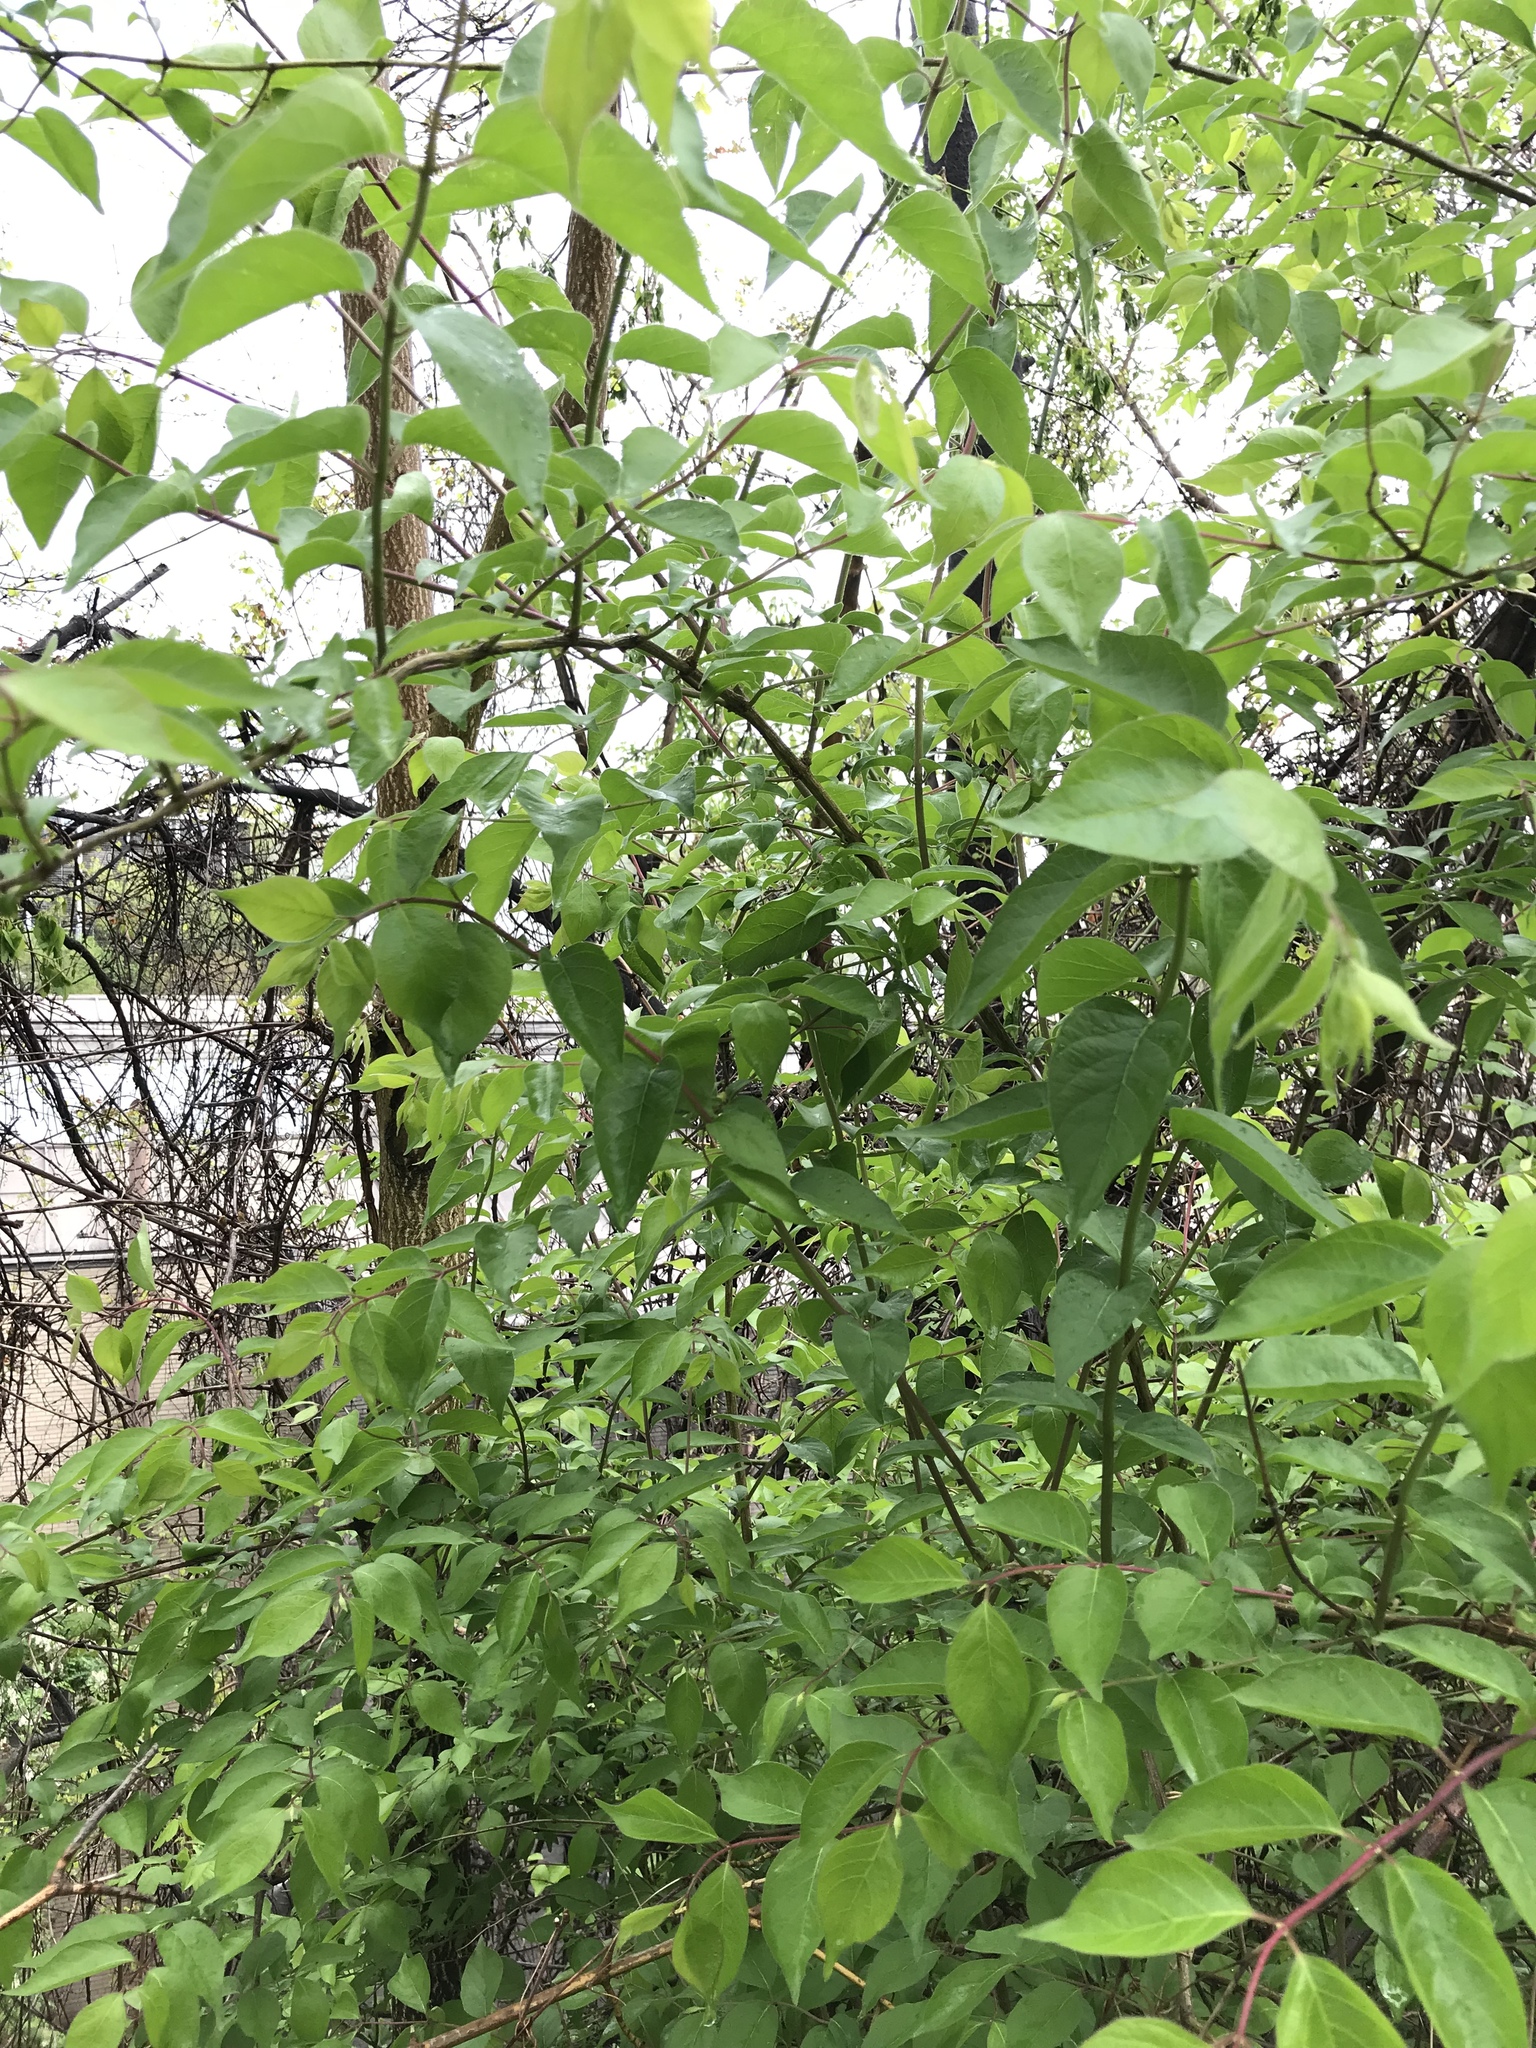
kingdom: Plantae
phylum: Tracheophyta
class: Magnoliopsida
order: Dipsacales
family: Caprifoliaceae
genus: Lonicera
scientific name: Lonicera maackii
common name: Amur honeysuckle
